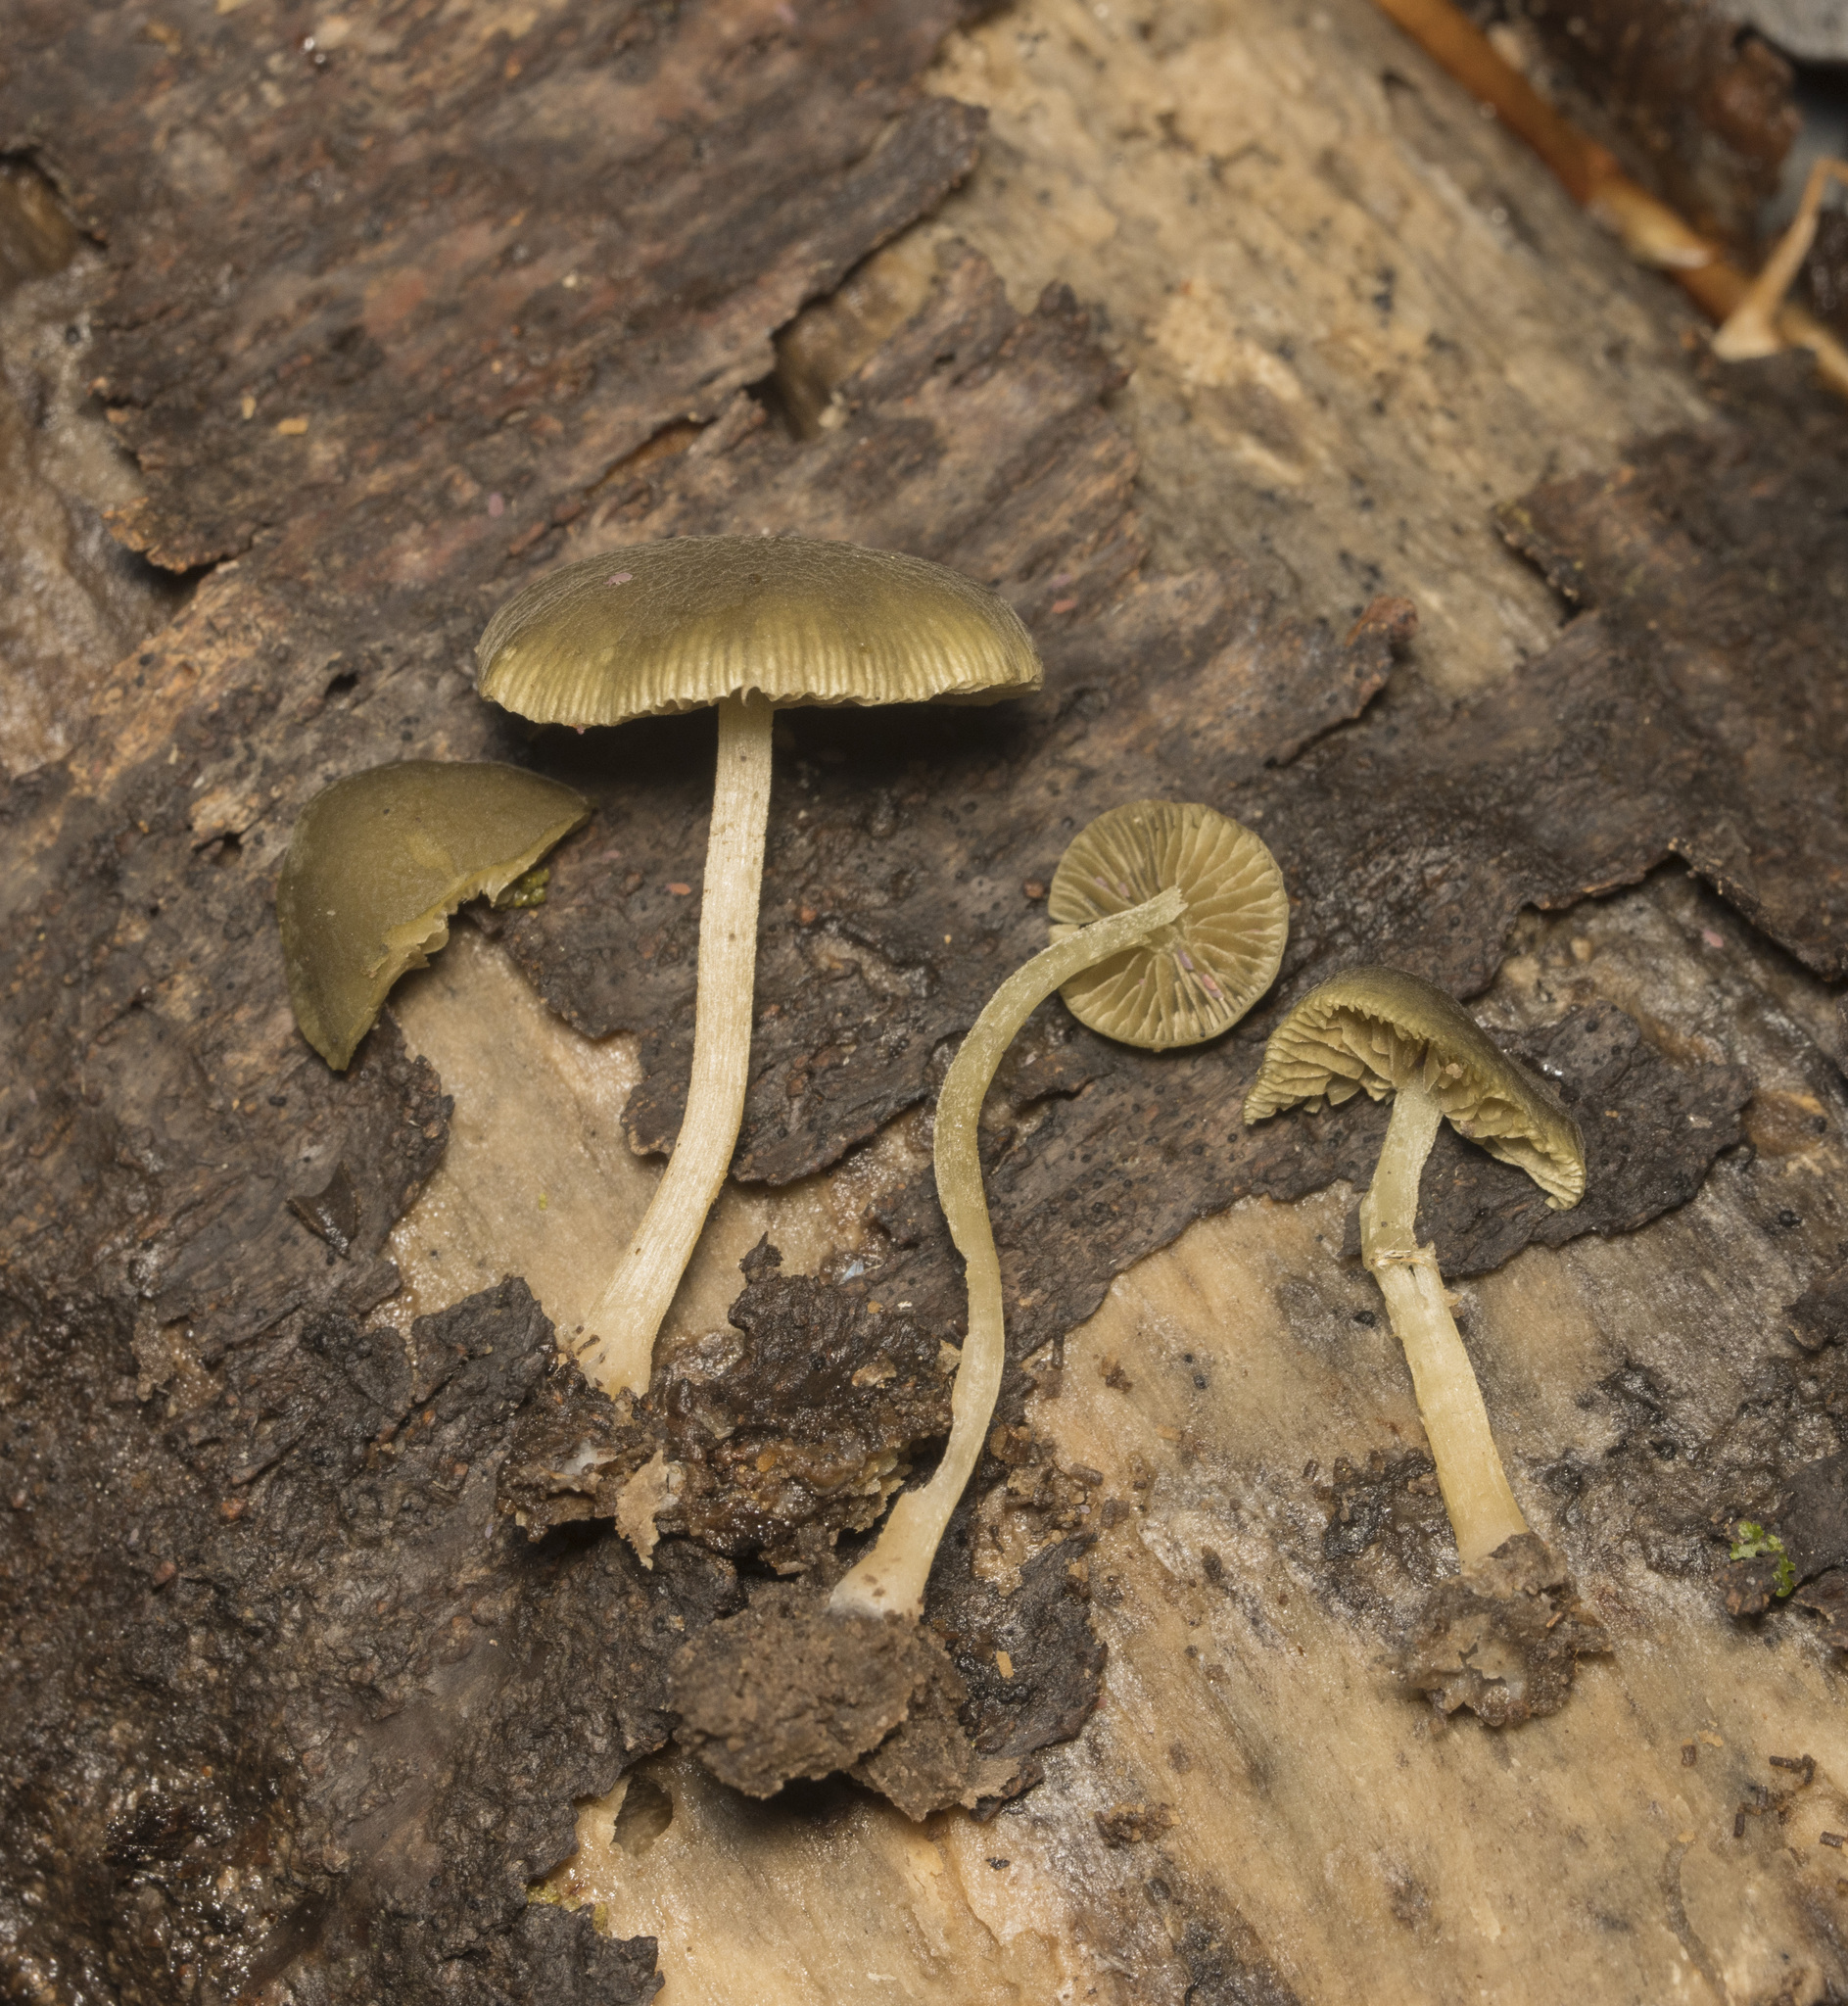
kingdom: Fungi
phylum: Basidiomycota
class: Agaricomycetes
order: Agaricales
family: Crepidotaceae
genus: Simocybe
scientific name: Simocybe olivaceiceps
